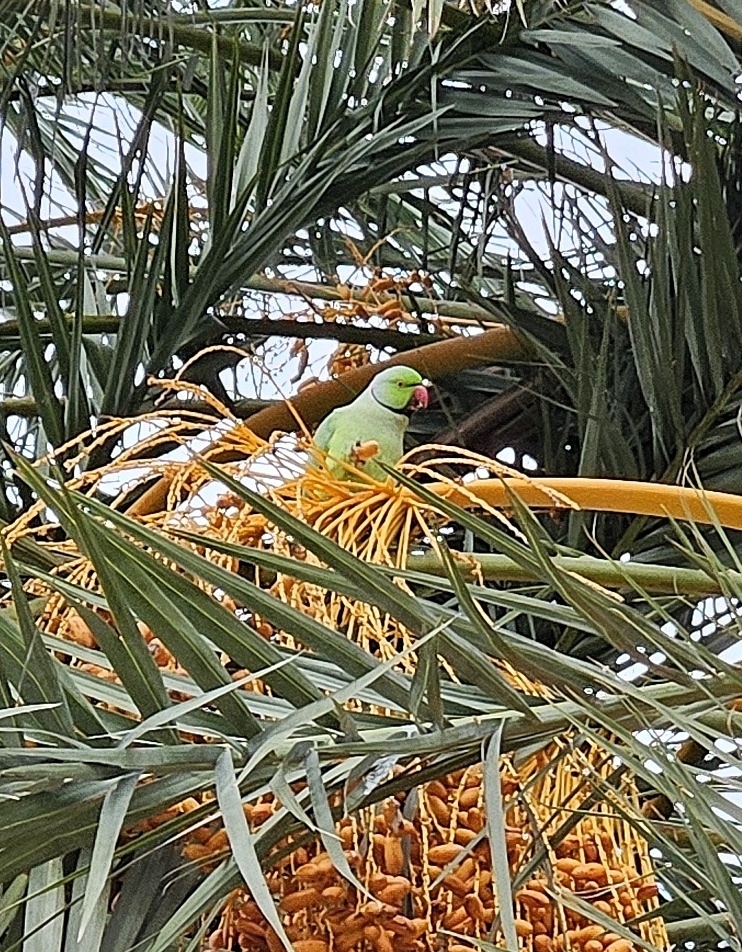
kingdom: Animalia
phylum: Chordata
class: Aves
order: Psittaciformes
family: Psittacidae
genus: Psittacula
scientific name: Psittacula krameri
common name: Rose-ringed parakeet
